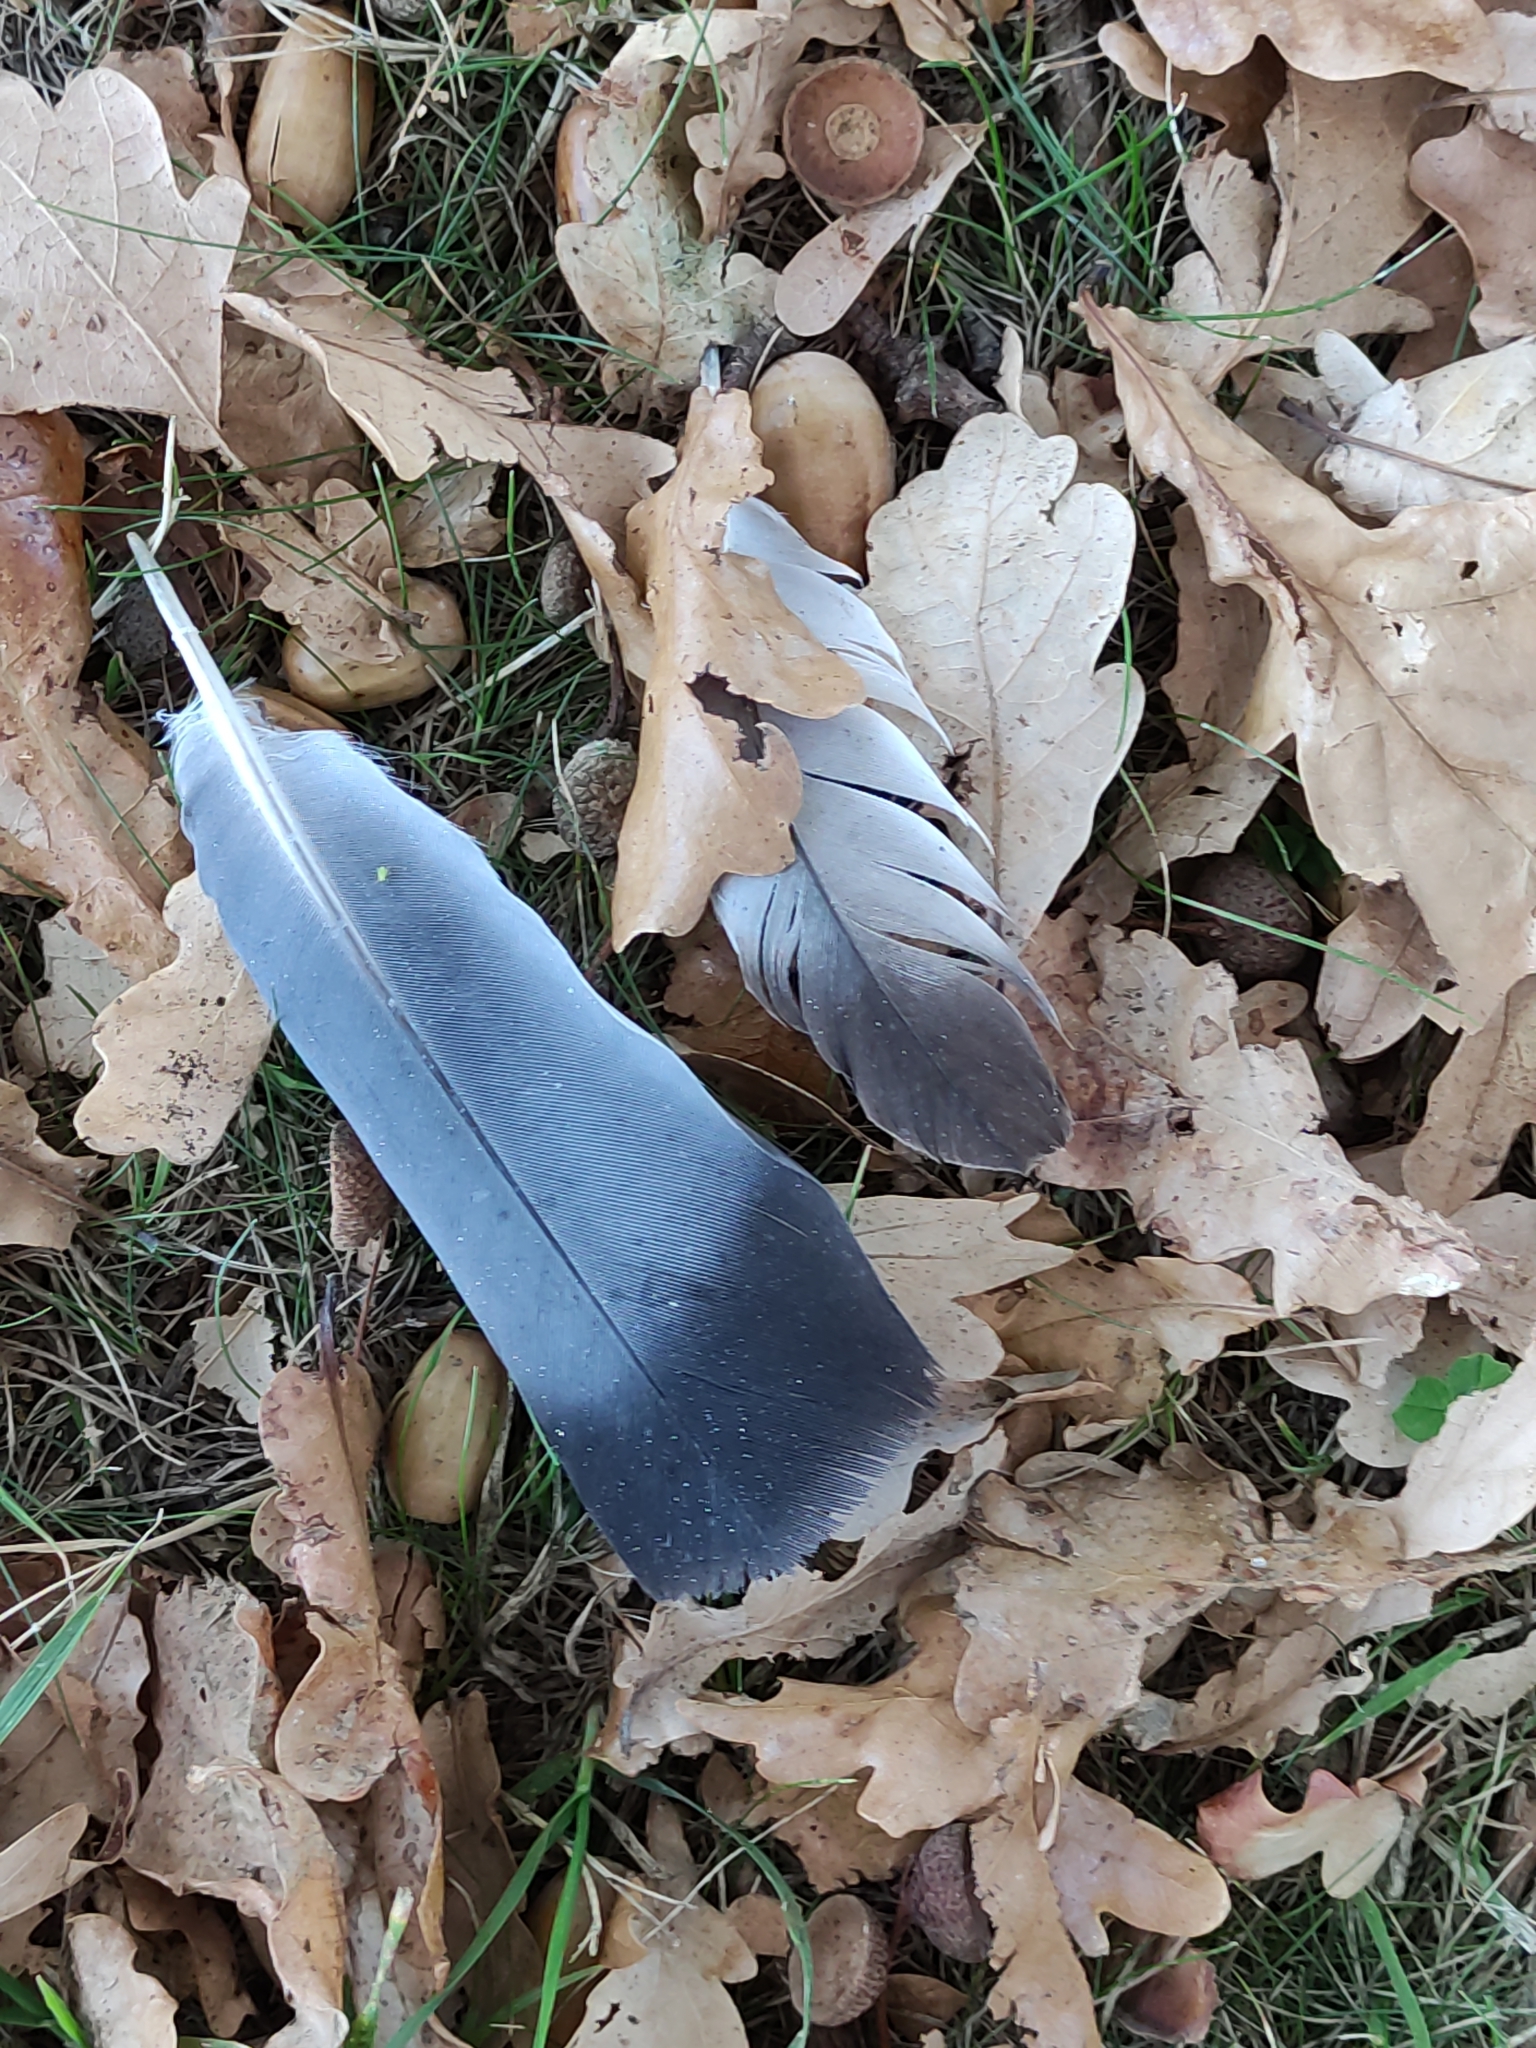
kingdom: Animalia
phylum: Chordata
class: Aves
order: Columbiformes
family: Columbidae
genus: Columba
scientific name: Columba livia
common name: Rock pigeon
